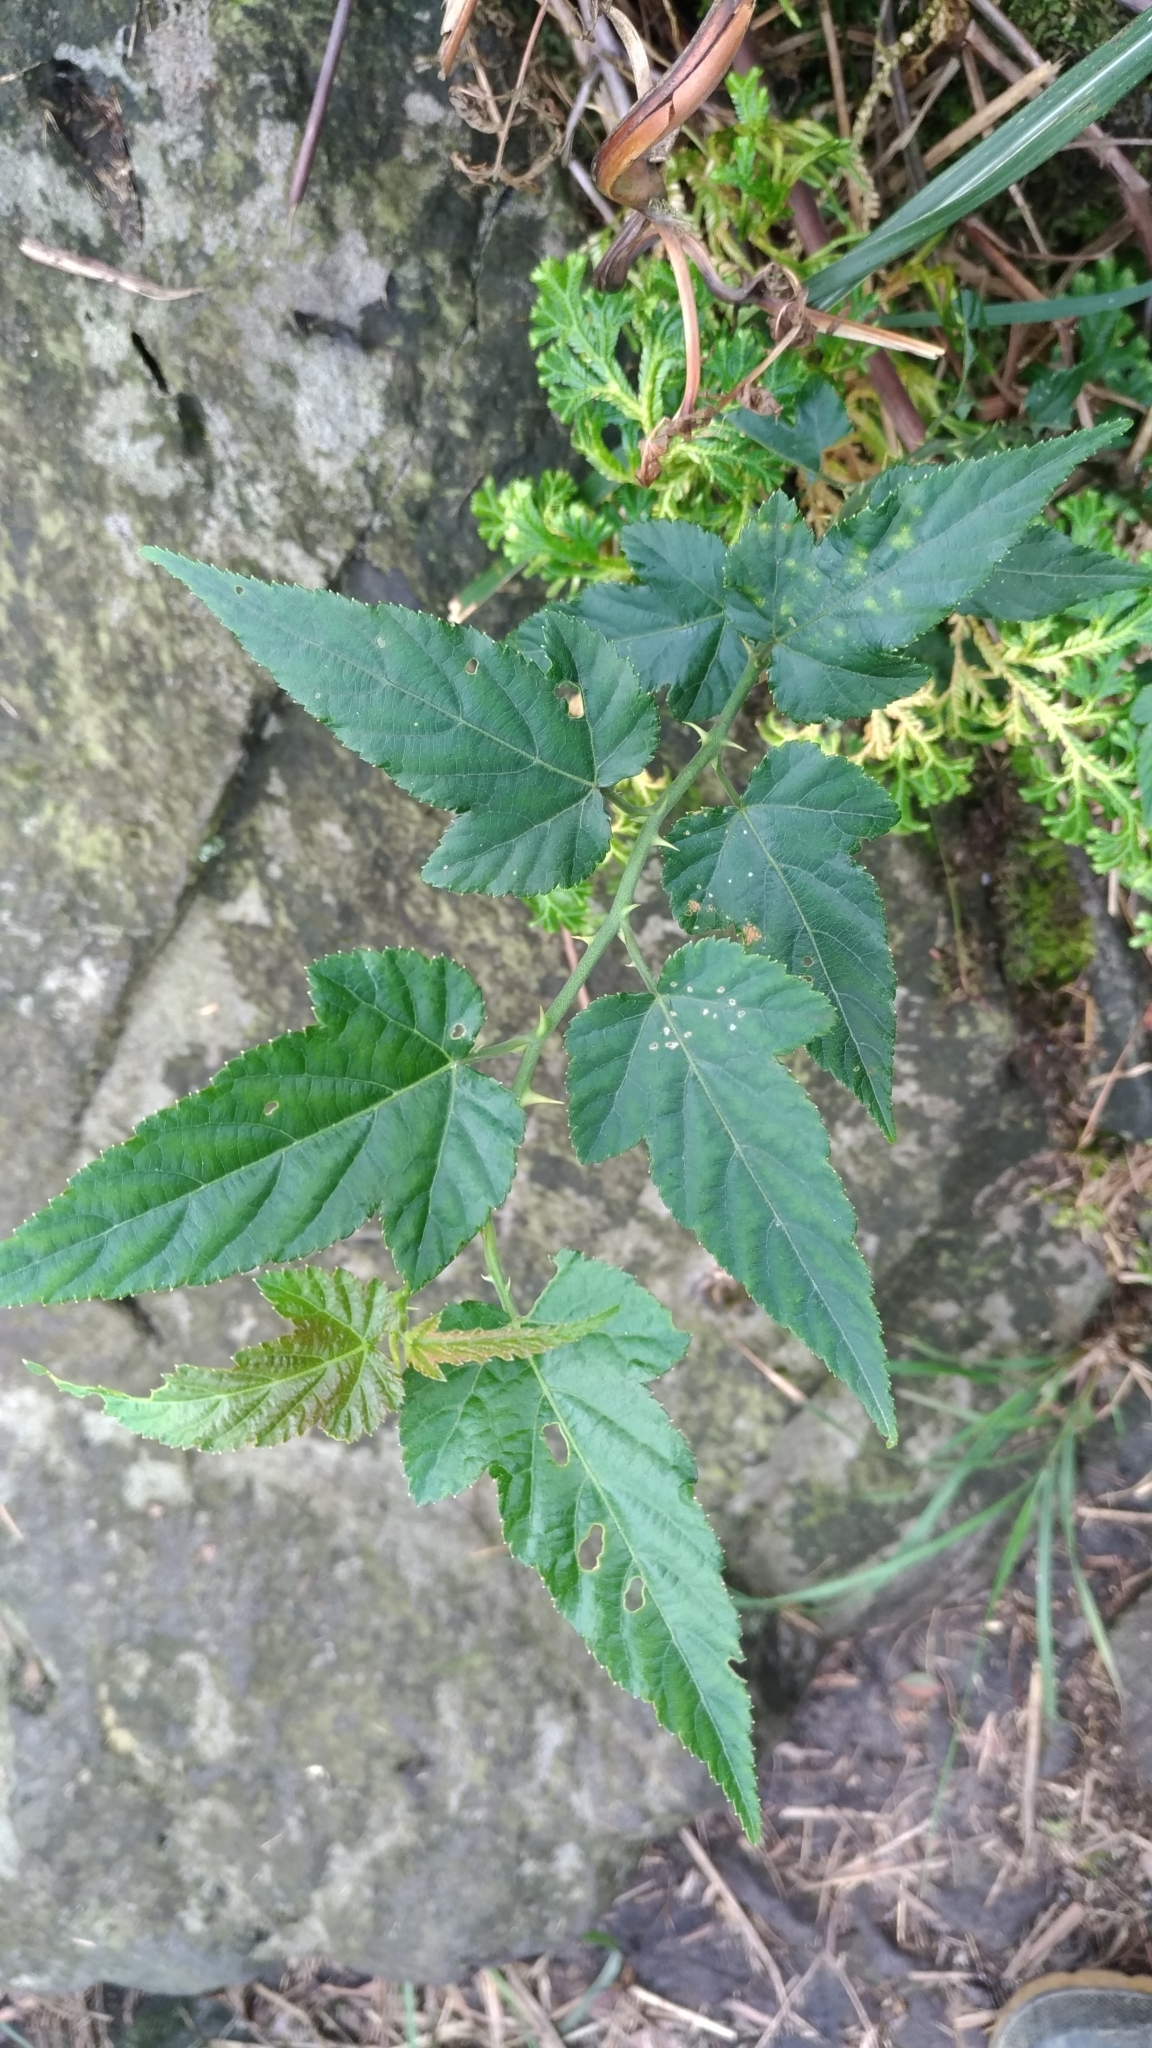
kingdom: Plantae
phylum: Tracheophyta
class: Magnoliopsida
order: Rosales
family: Rosaceae
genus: Rubus
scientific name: Rubus corchorifolius
